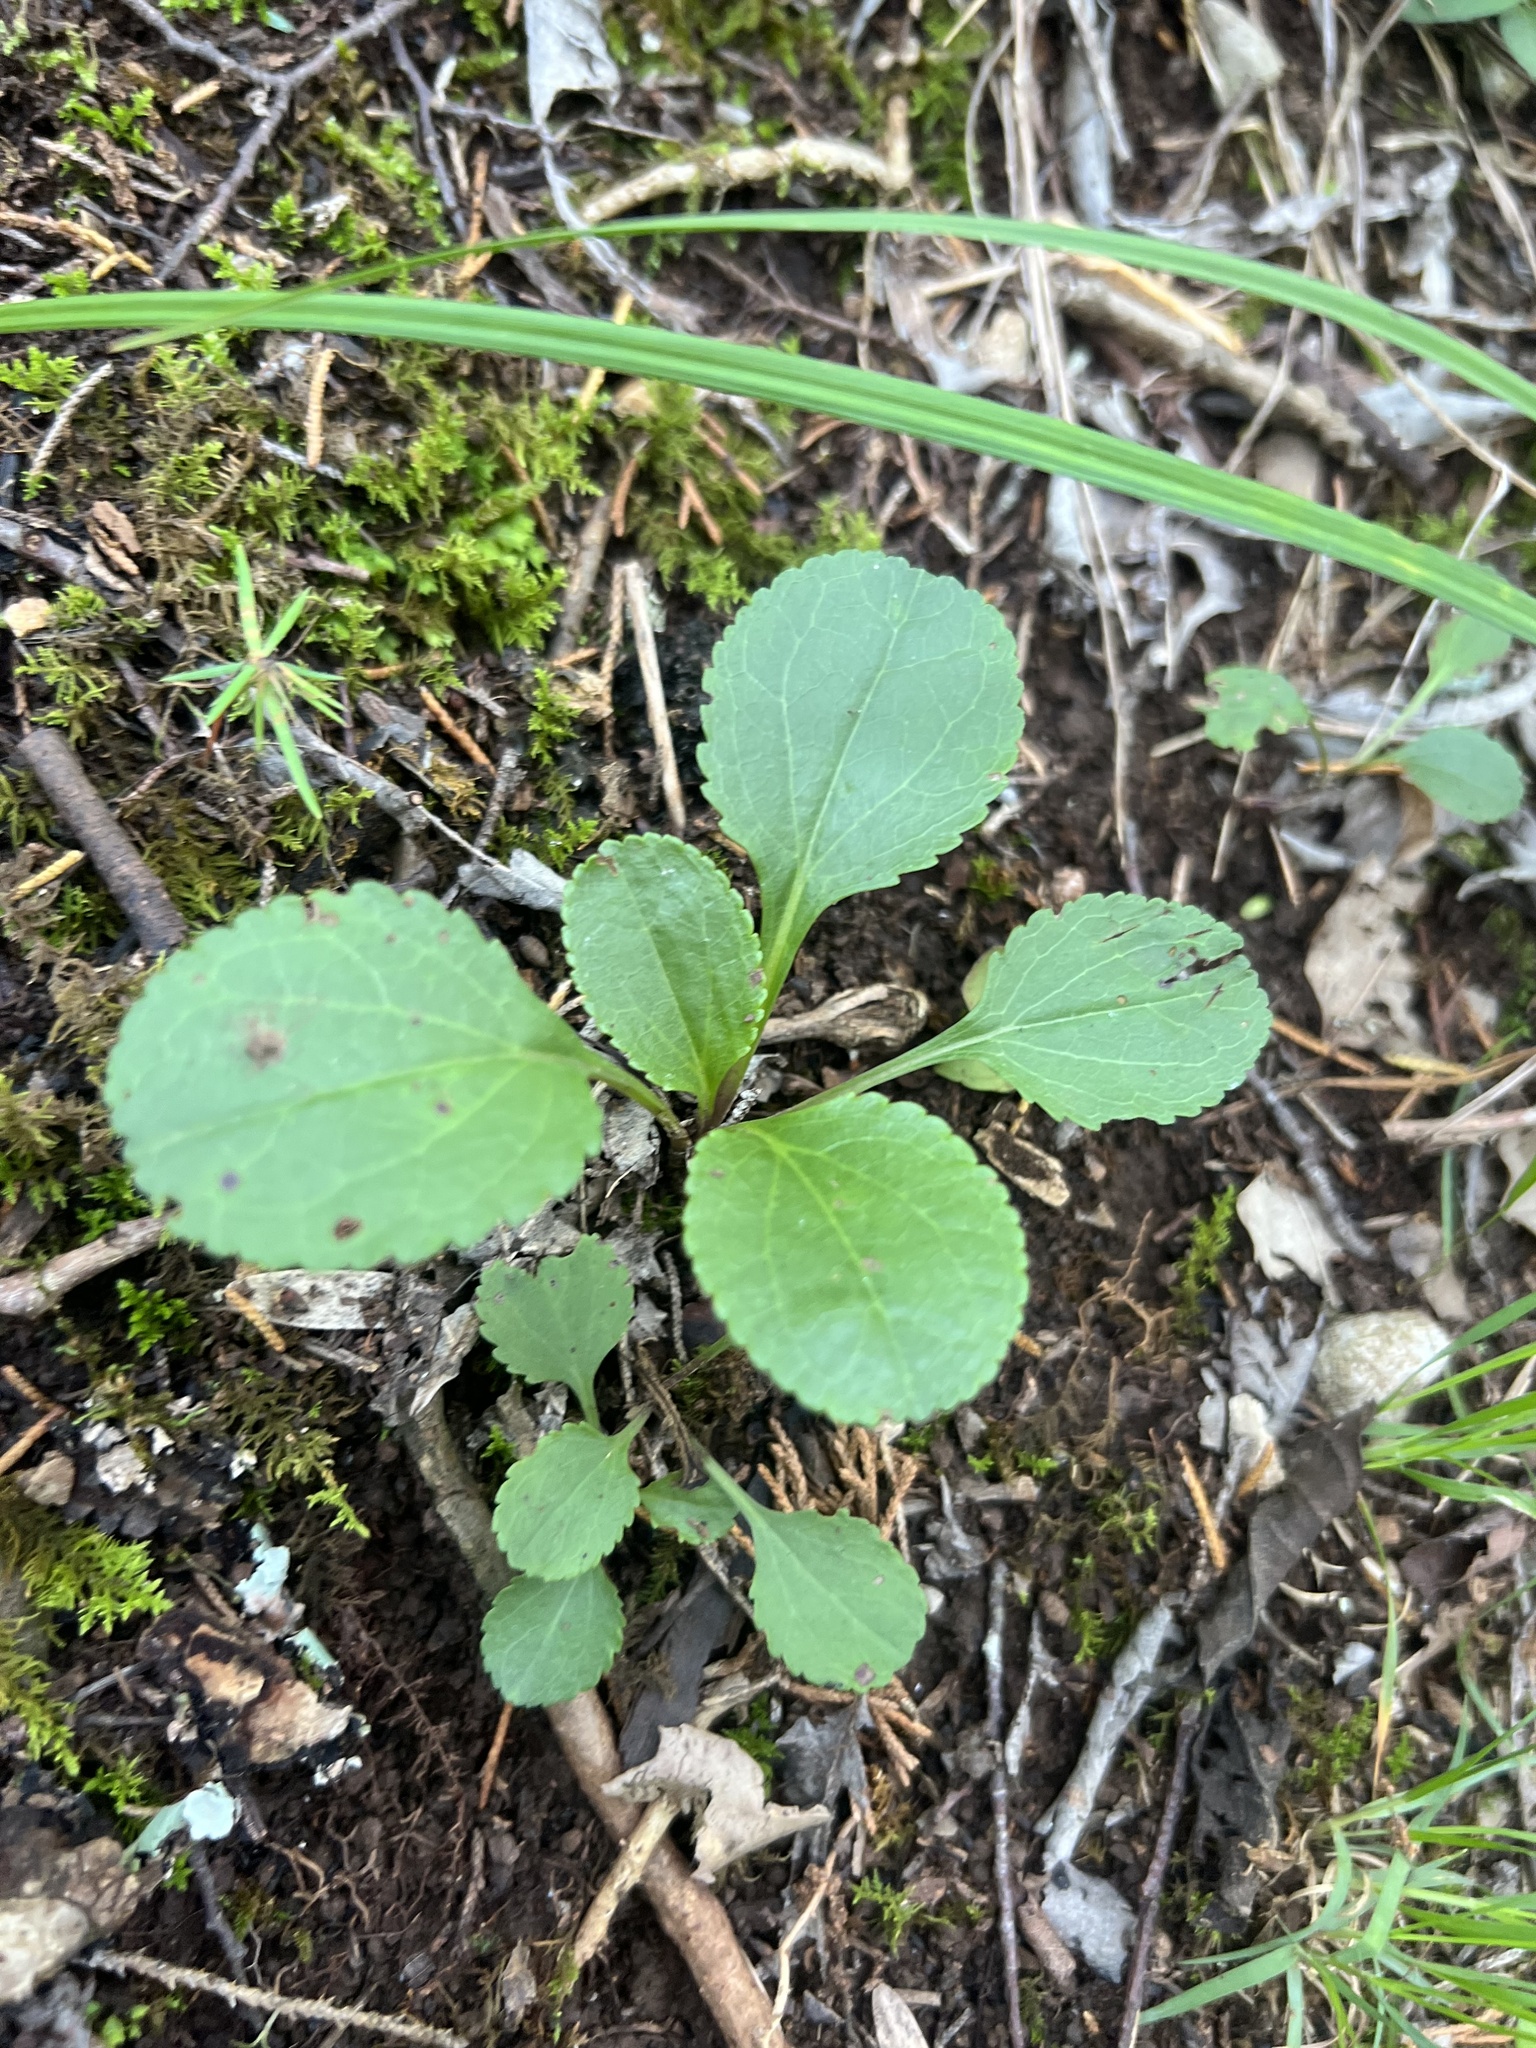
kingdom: Plantae
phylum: Tracheophyta
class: Magnoliopsida
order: Asterales
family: Asteraceae
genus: Packera
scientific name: Packera obovata
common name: Round-leaf ragwort
